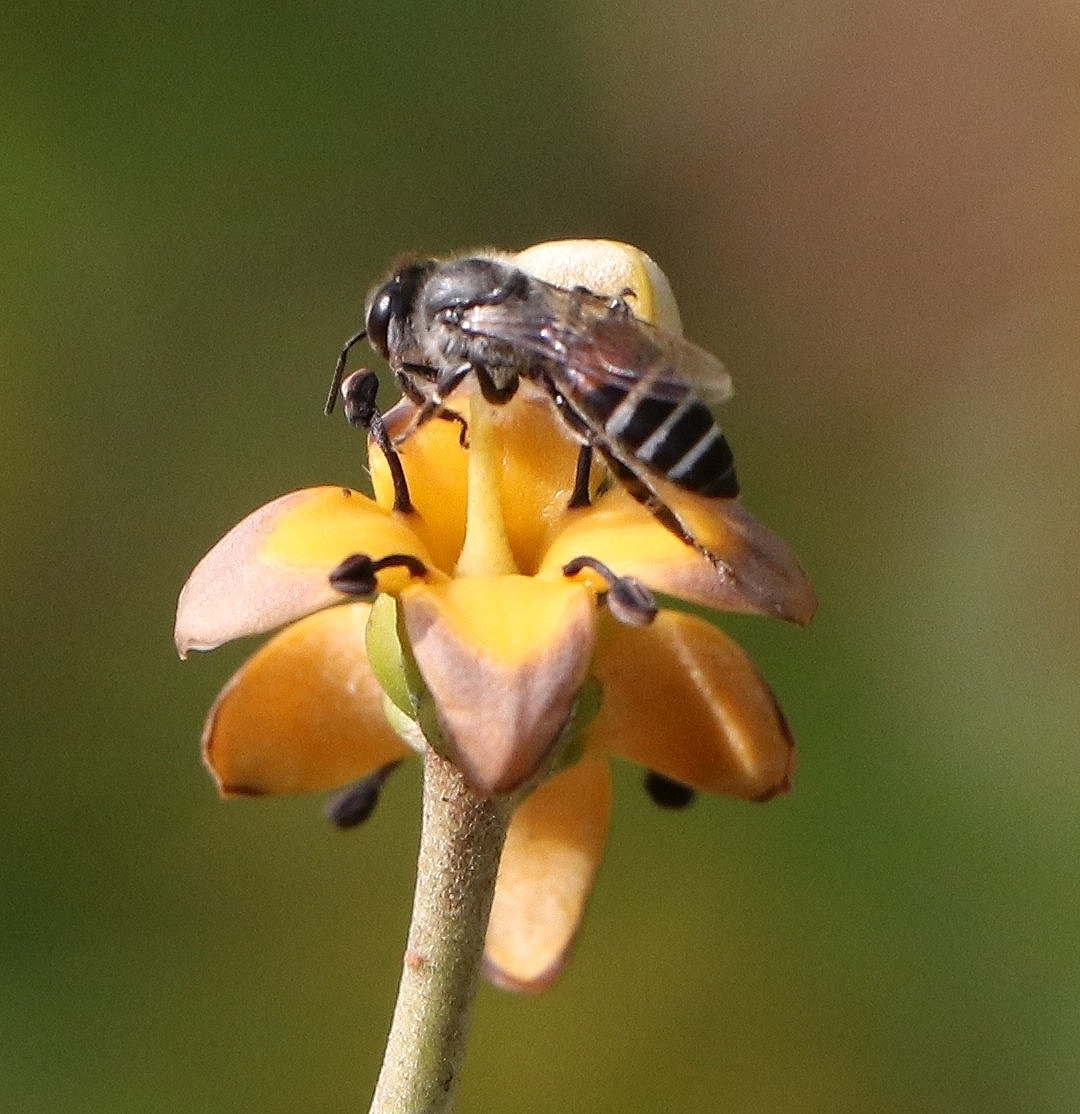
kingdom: Animalia
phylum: Arthropoda
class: Insecta
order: Hymenoptera
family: Apidae
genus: Apis
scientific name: Apis florea
